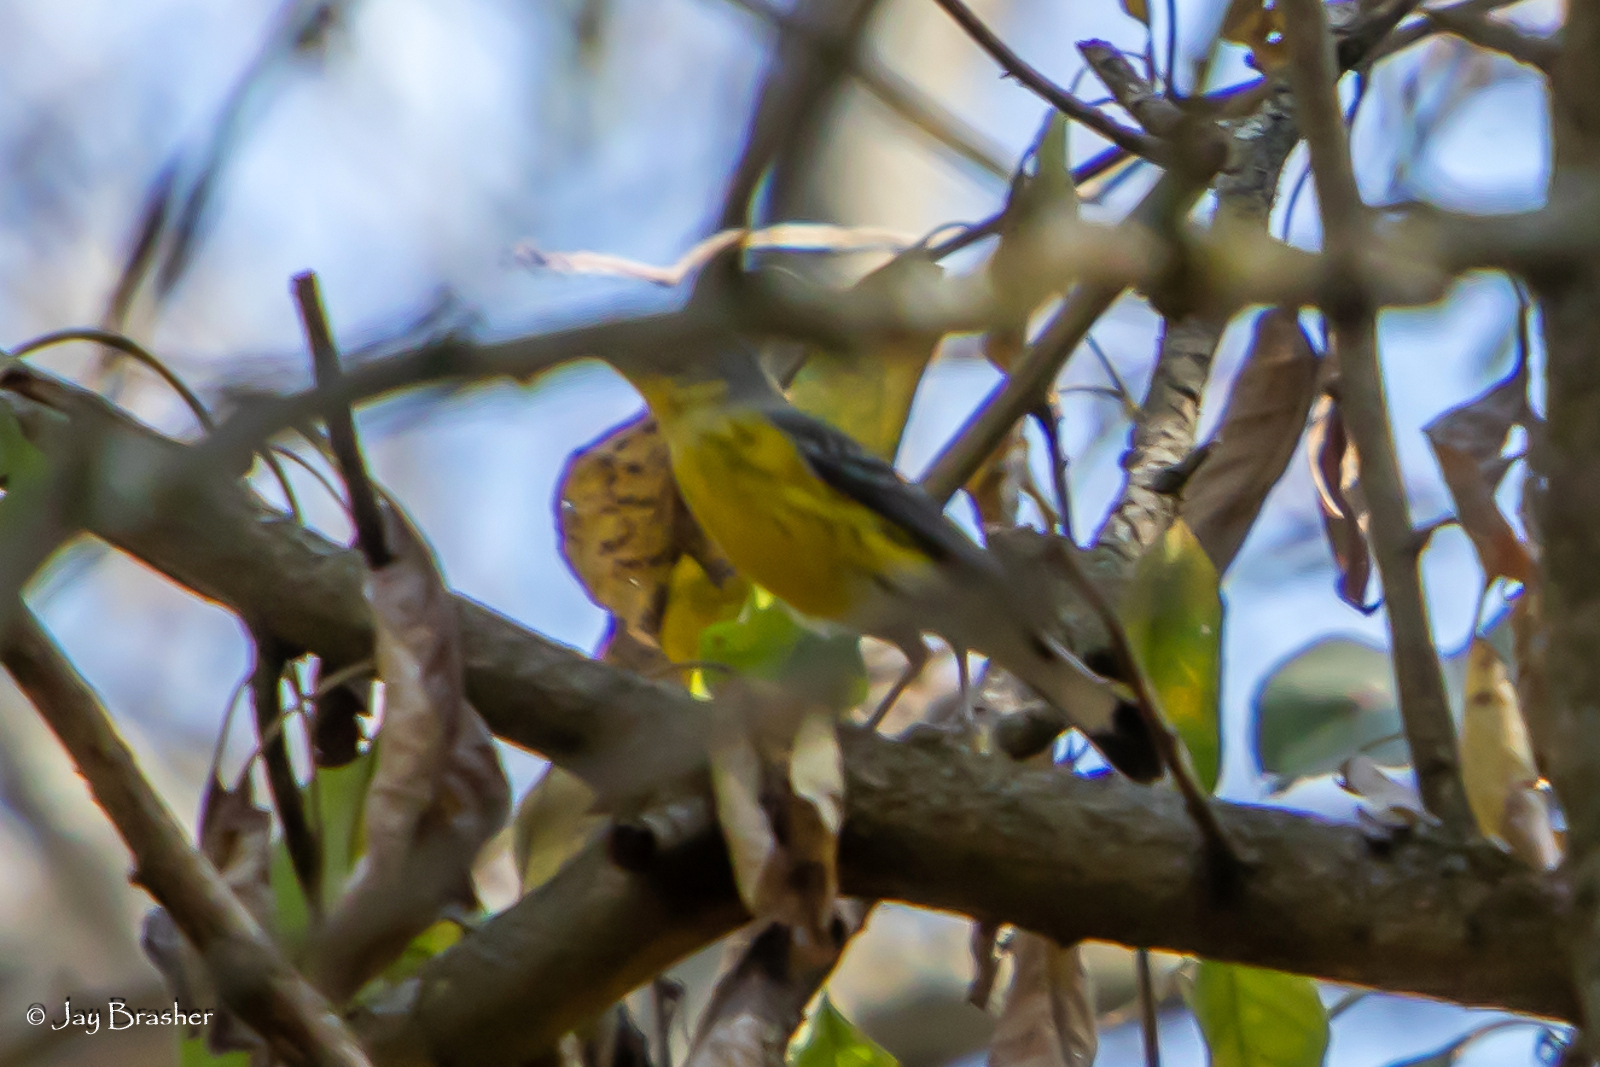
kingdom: Animalia
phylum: Chordata
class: Aves
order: Passeriformes
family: Parulidae
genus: Setophaga
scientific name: Setophaga magnolia
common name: Magnolia warbler
